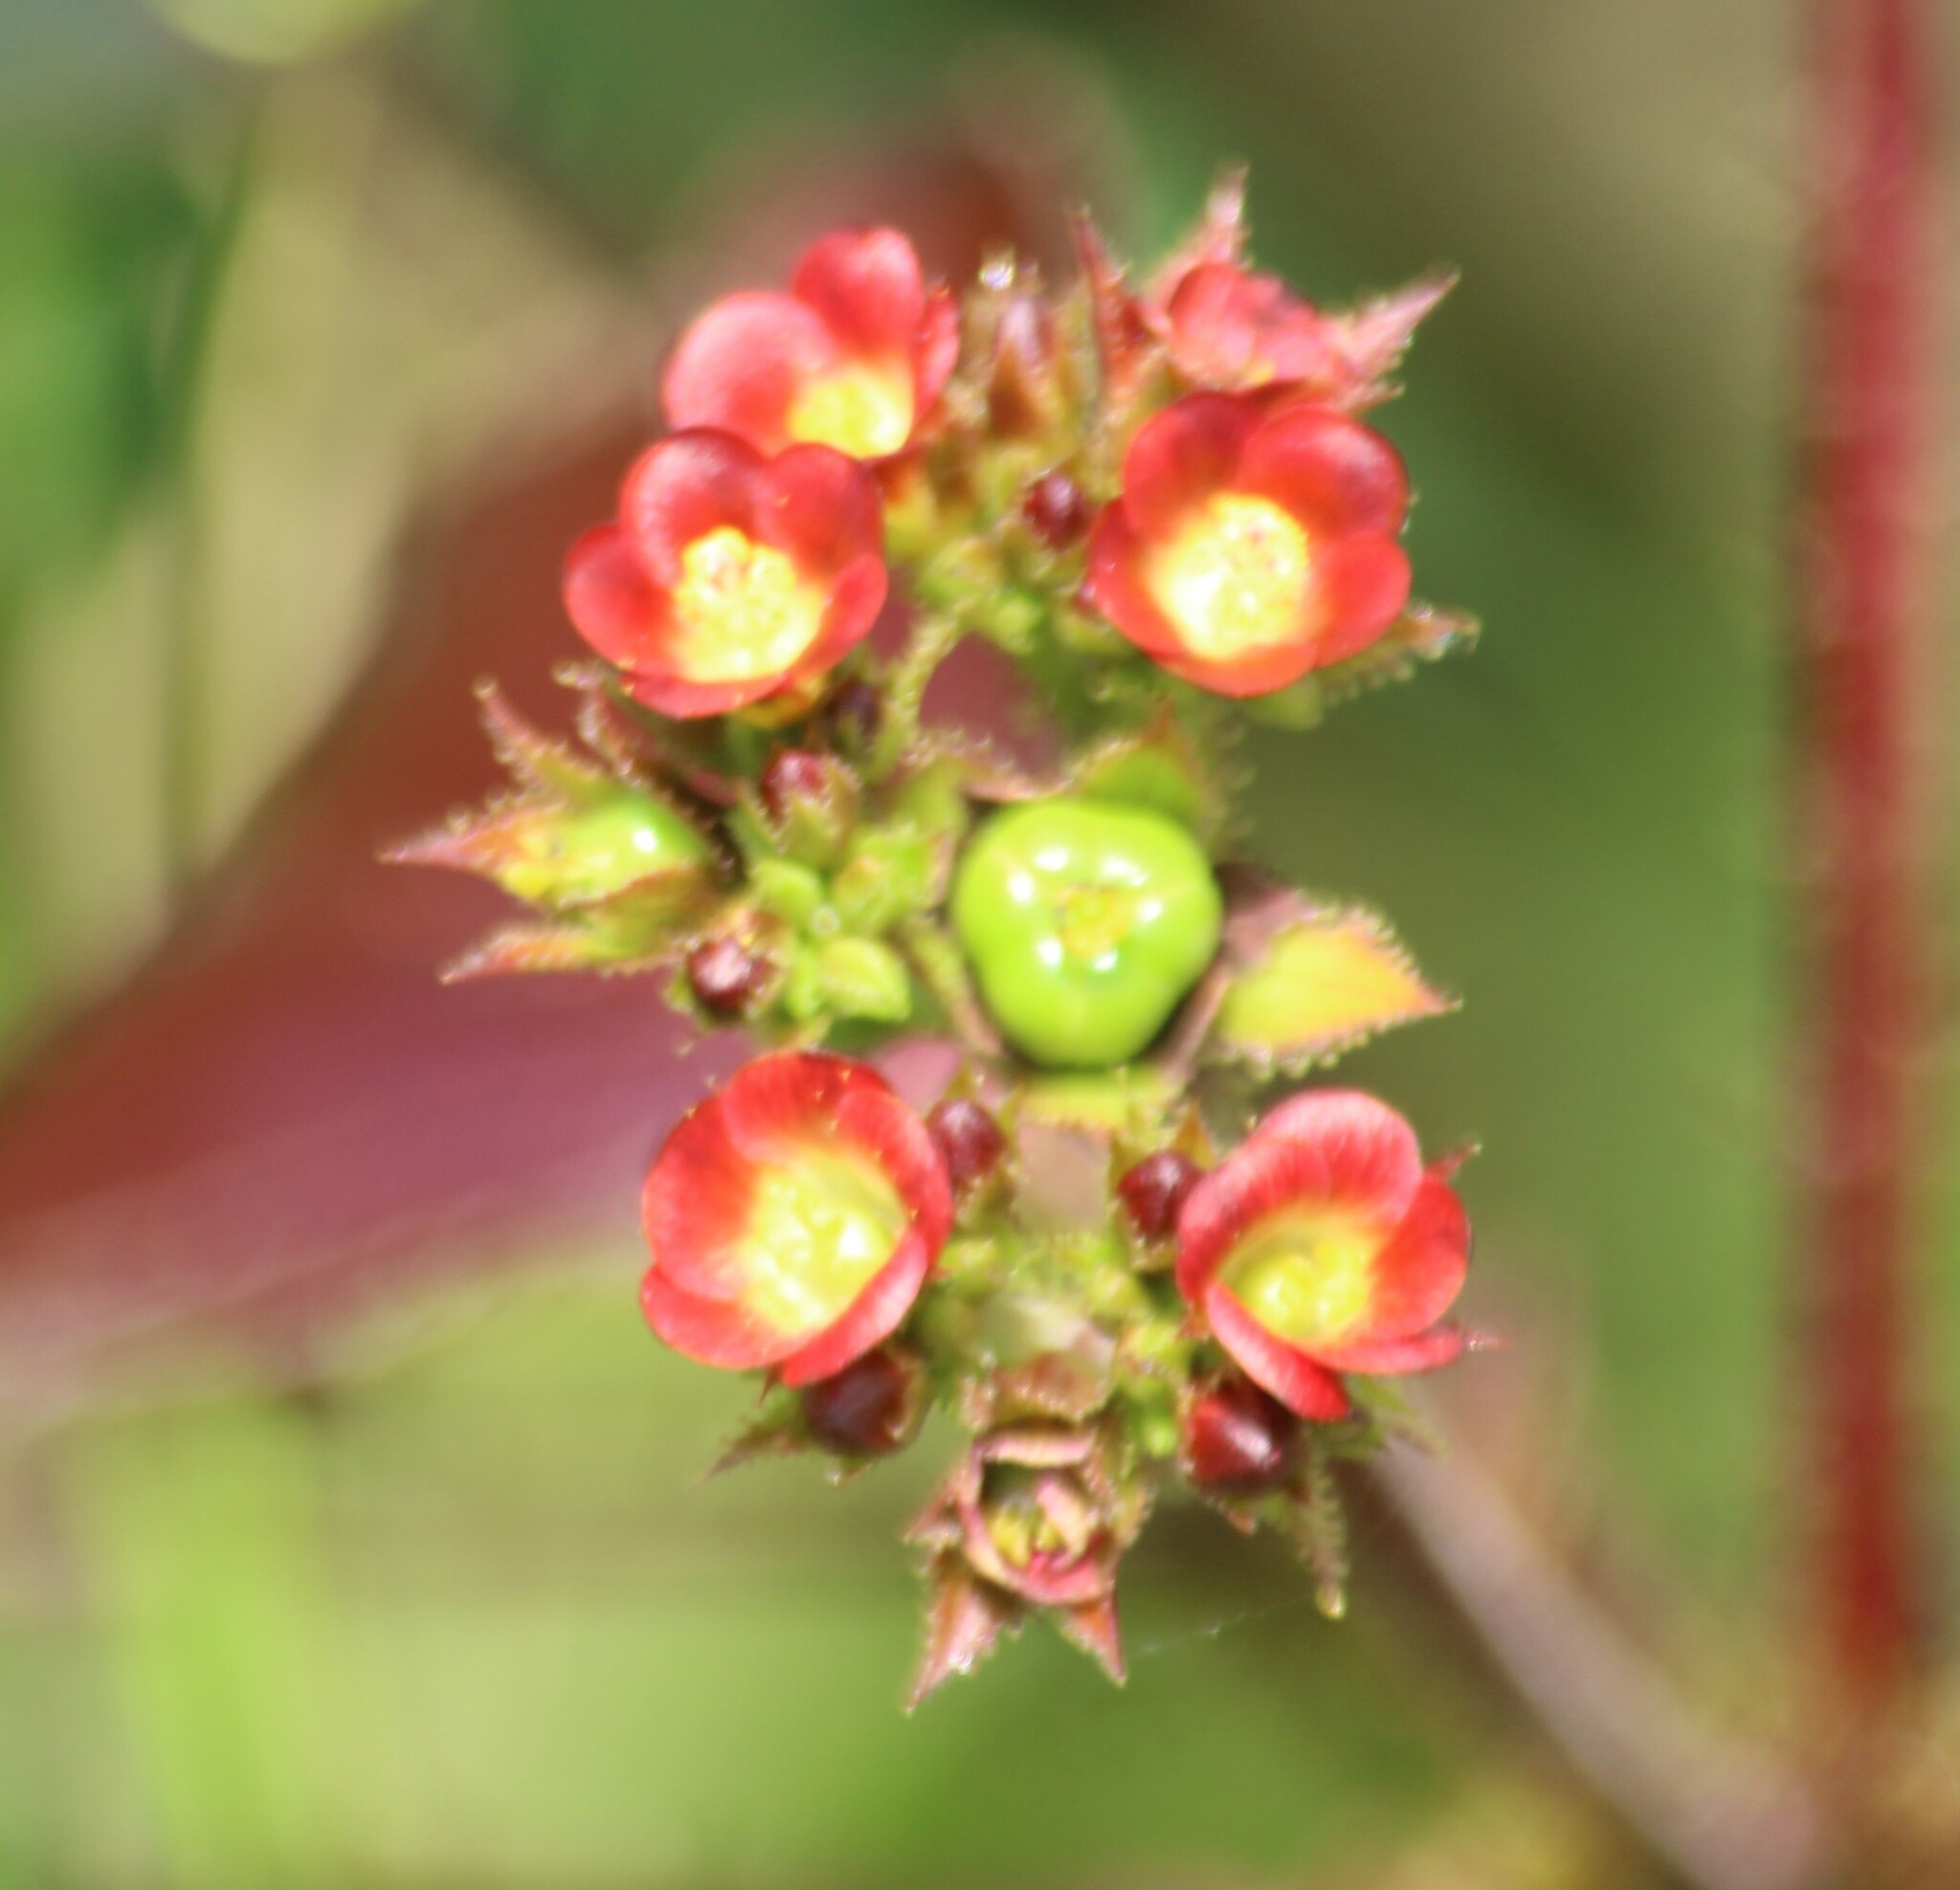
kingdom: Plantae
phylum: Tracheophyta
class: Magnoliopsida
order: Malpighiales
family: Euphorbiaceae
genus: Jatropha
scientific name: Jatropha gossypiifolia
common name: Bellyache bush
